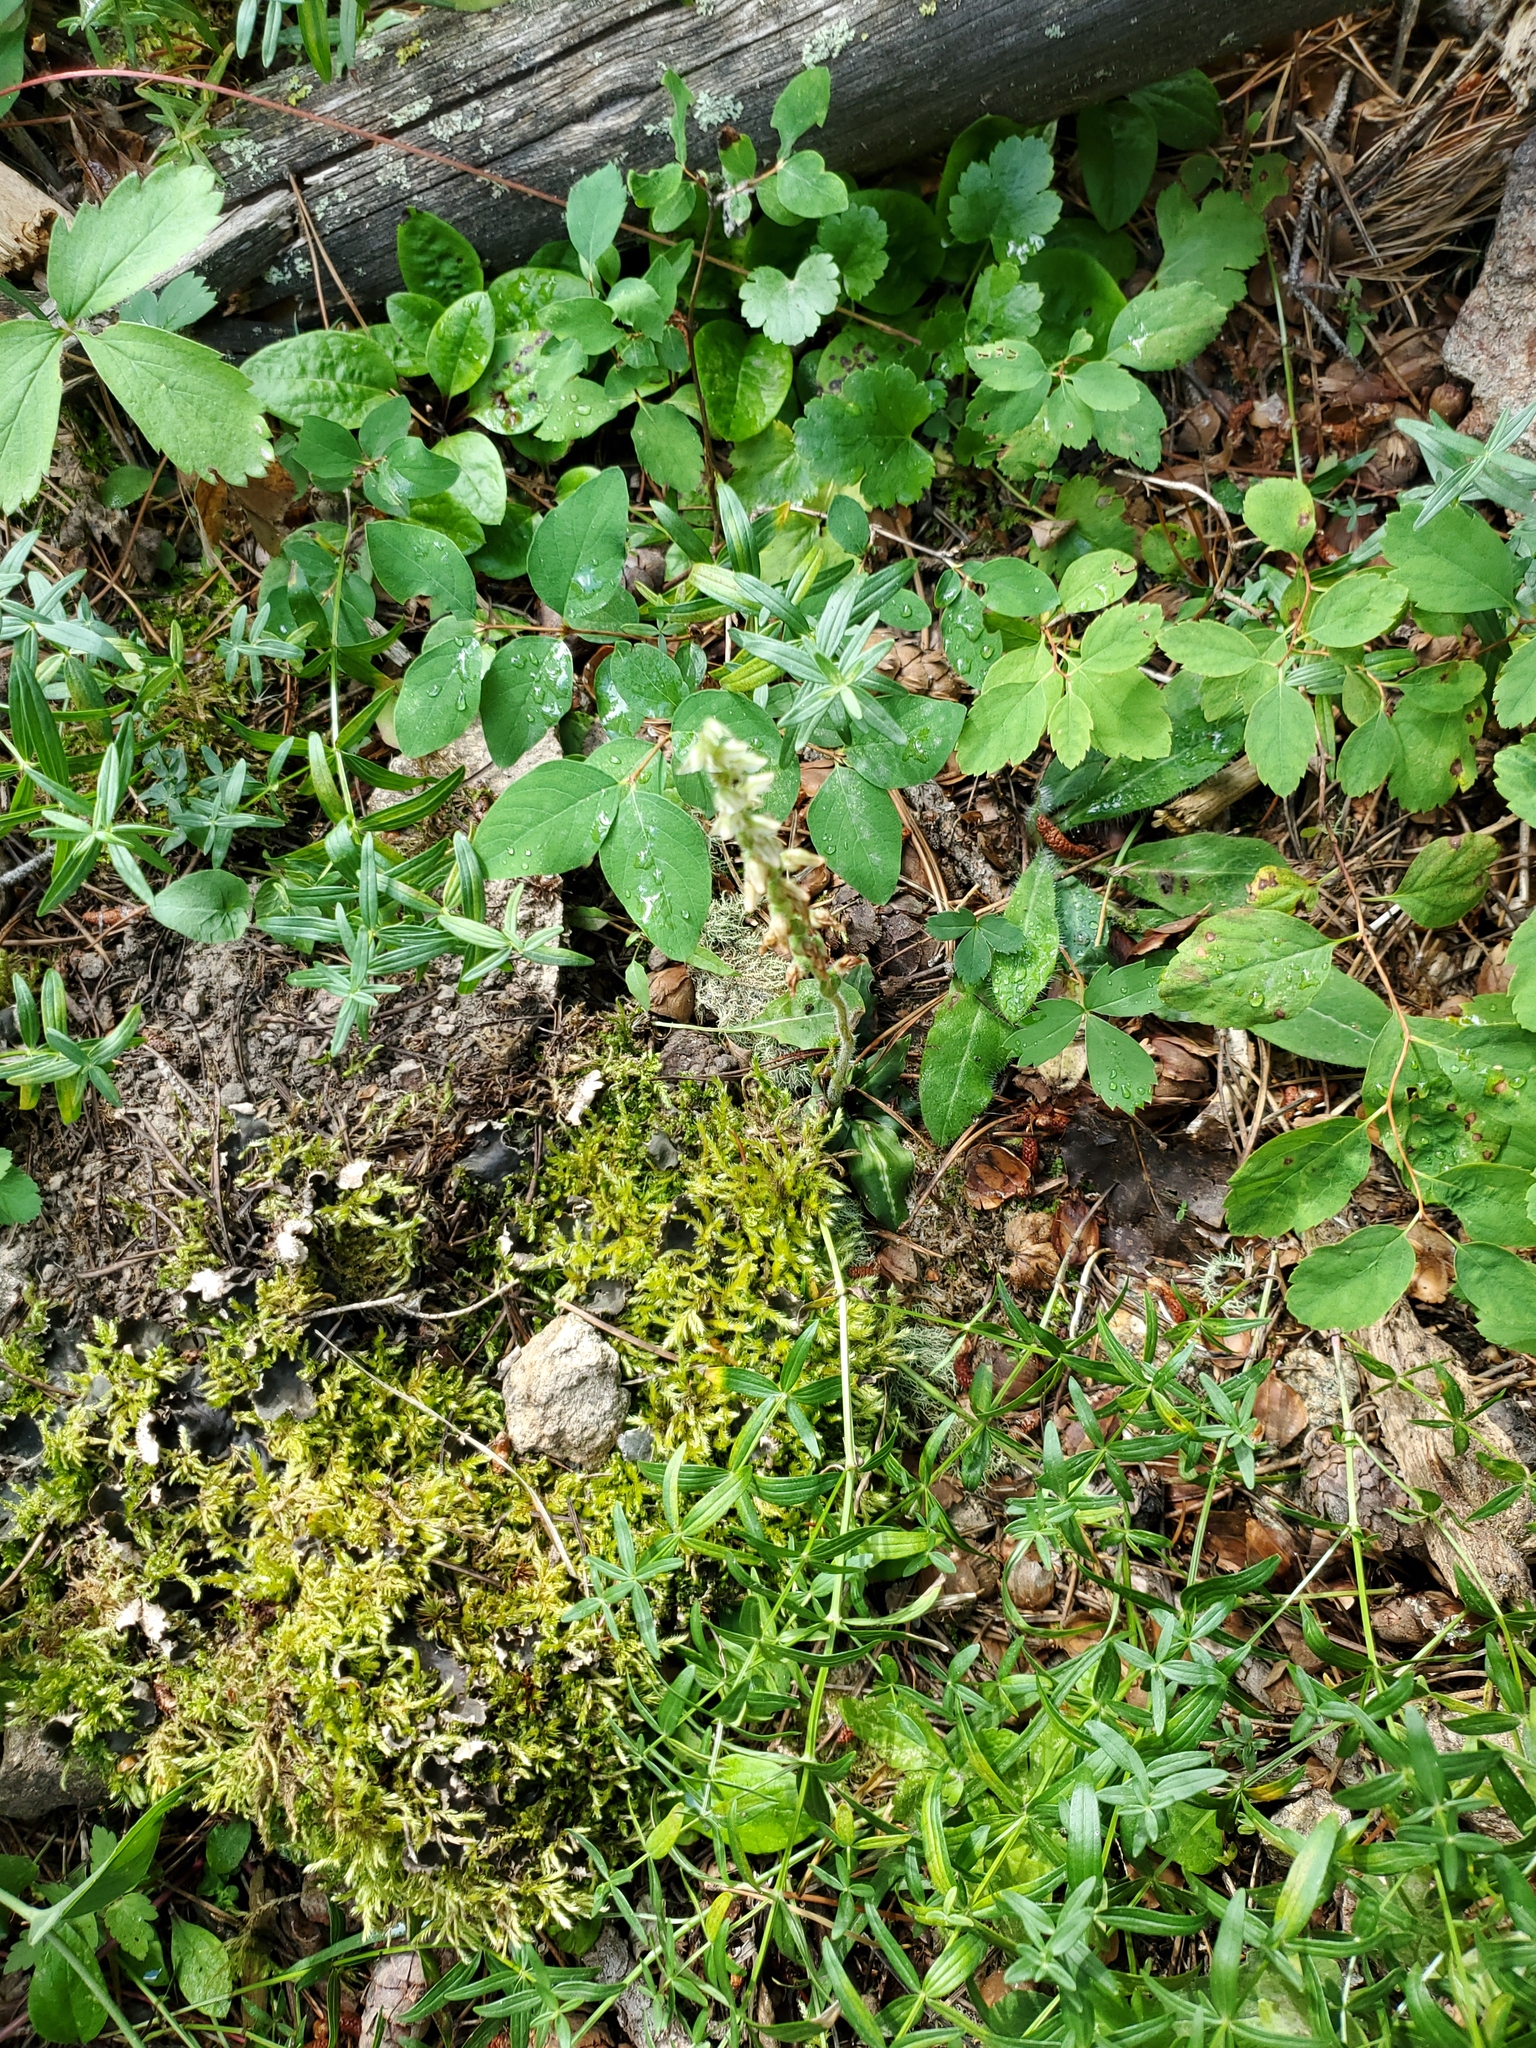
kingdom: Plantae
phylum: Tracheophyta
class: Liliopsida
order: Asparagales
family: Orchidaceae
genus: Goodyera
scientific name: Goodyera oblongifolia
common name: Giant rattlesnake-plantain
